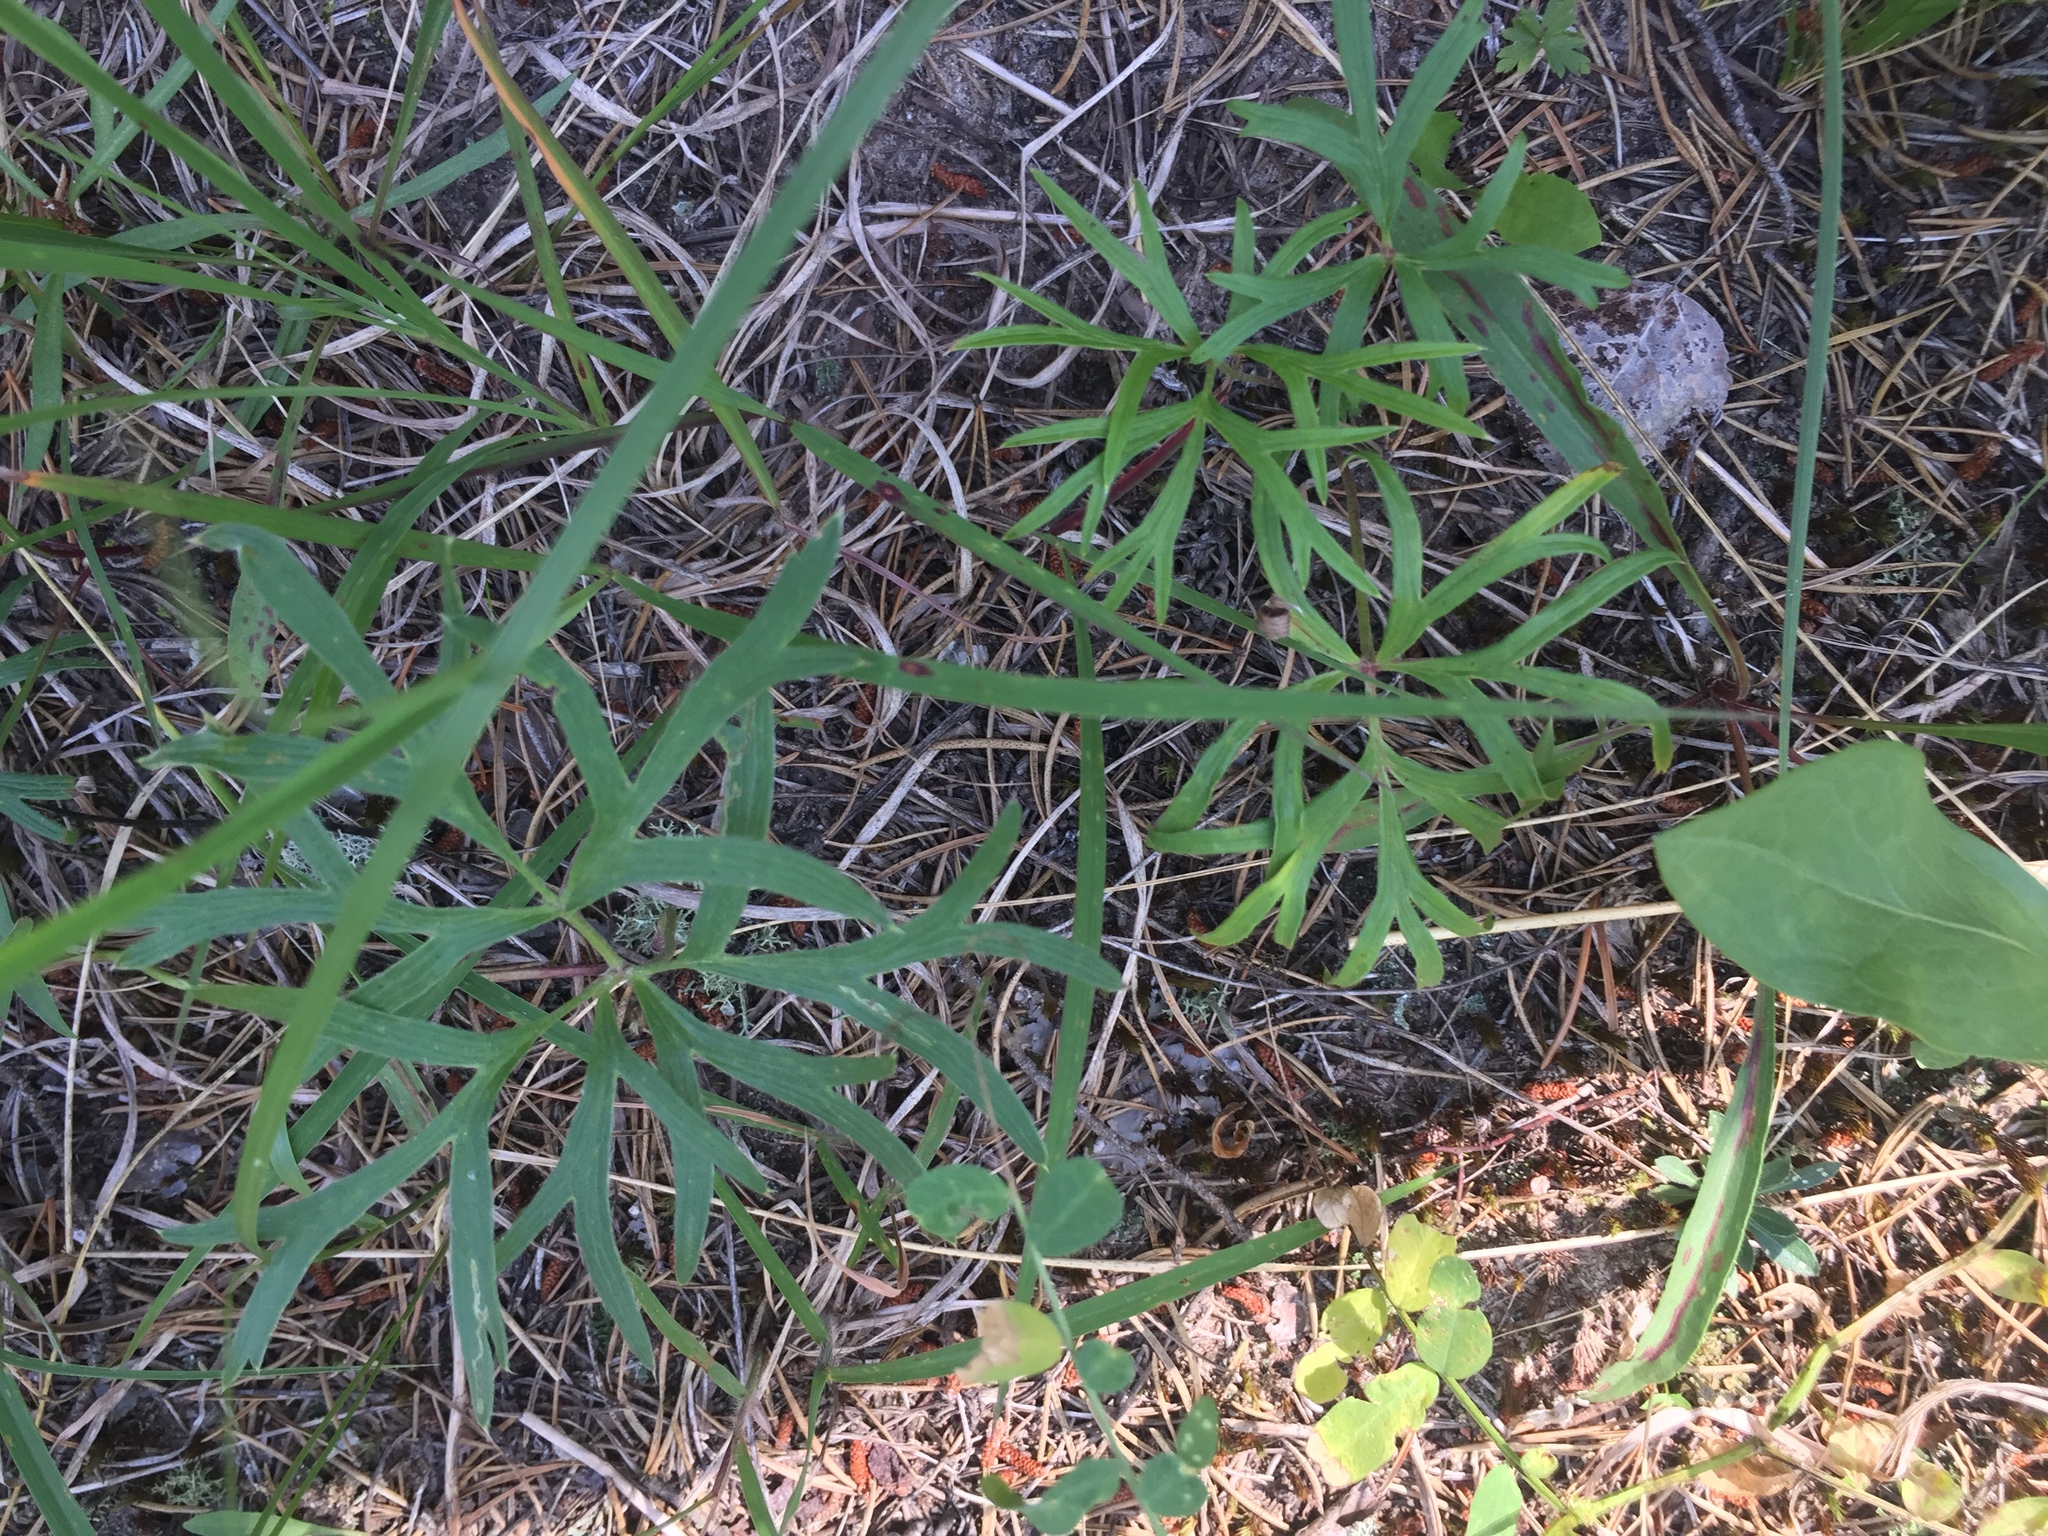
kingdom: Plantae
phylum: Tracheophyta
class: Magnoliopsida
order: Ranunculales
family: Ranunculaceae
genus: Pulsatilla
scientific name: Pulsatilla nuttalliana
